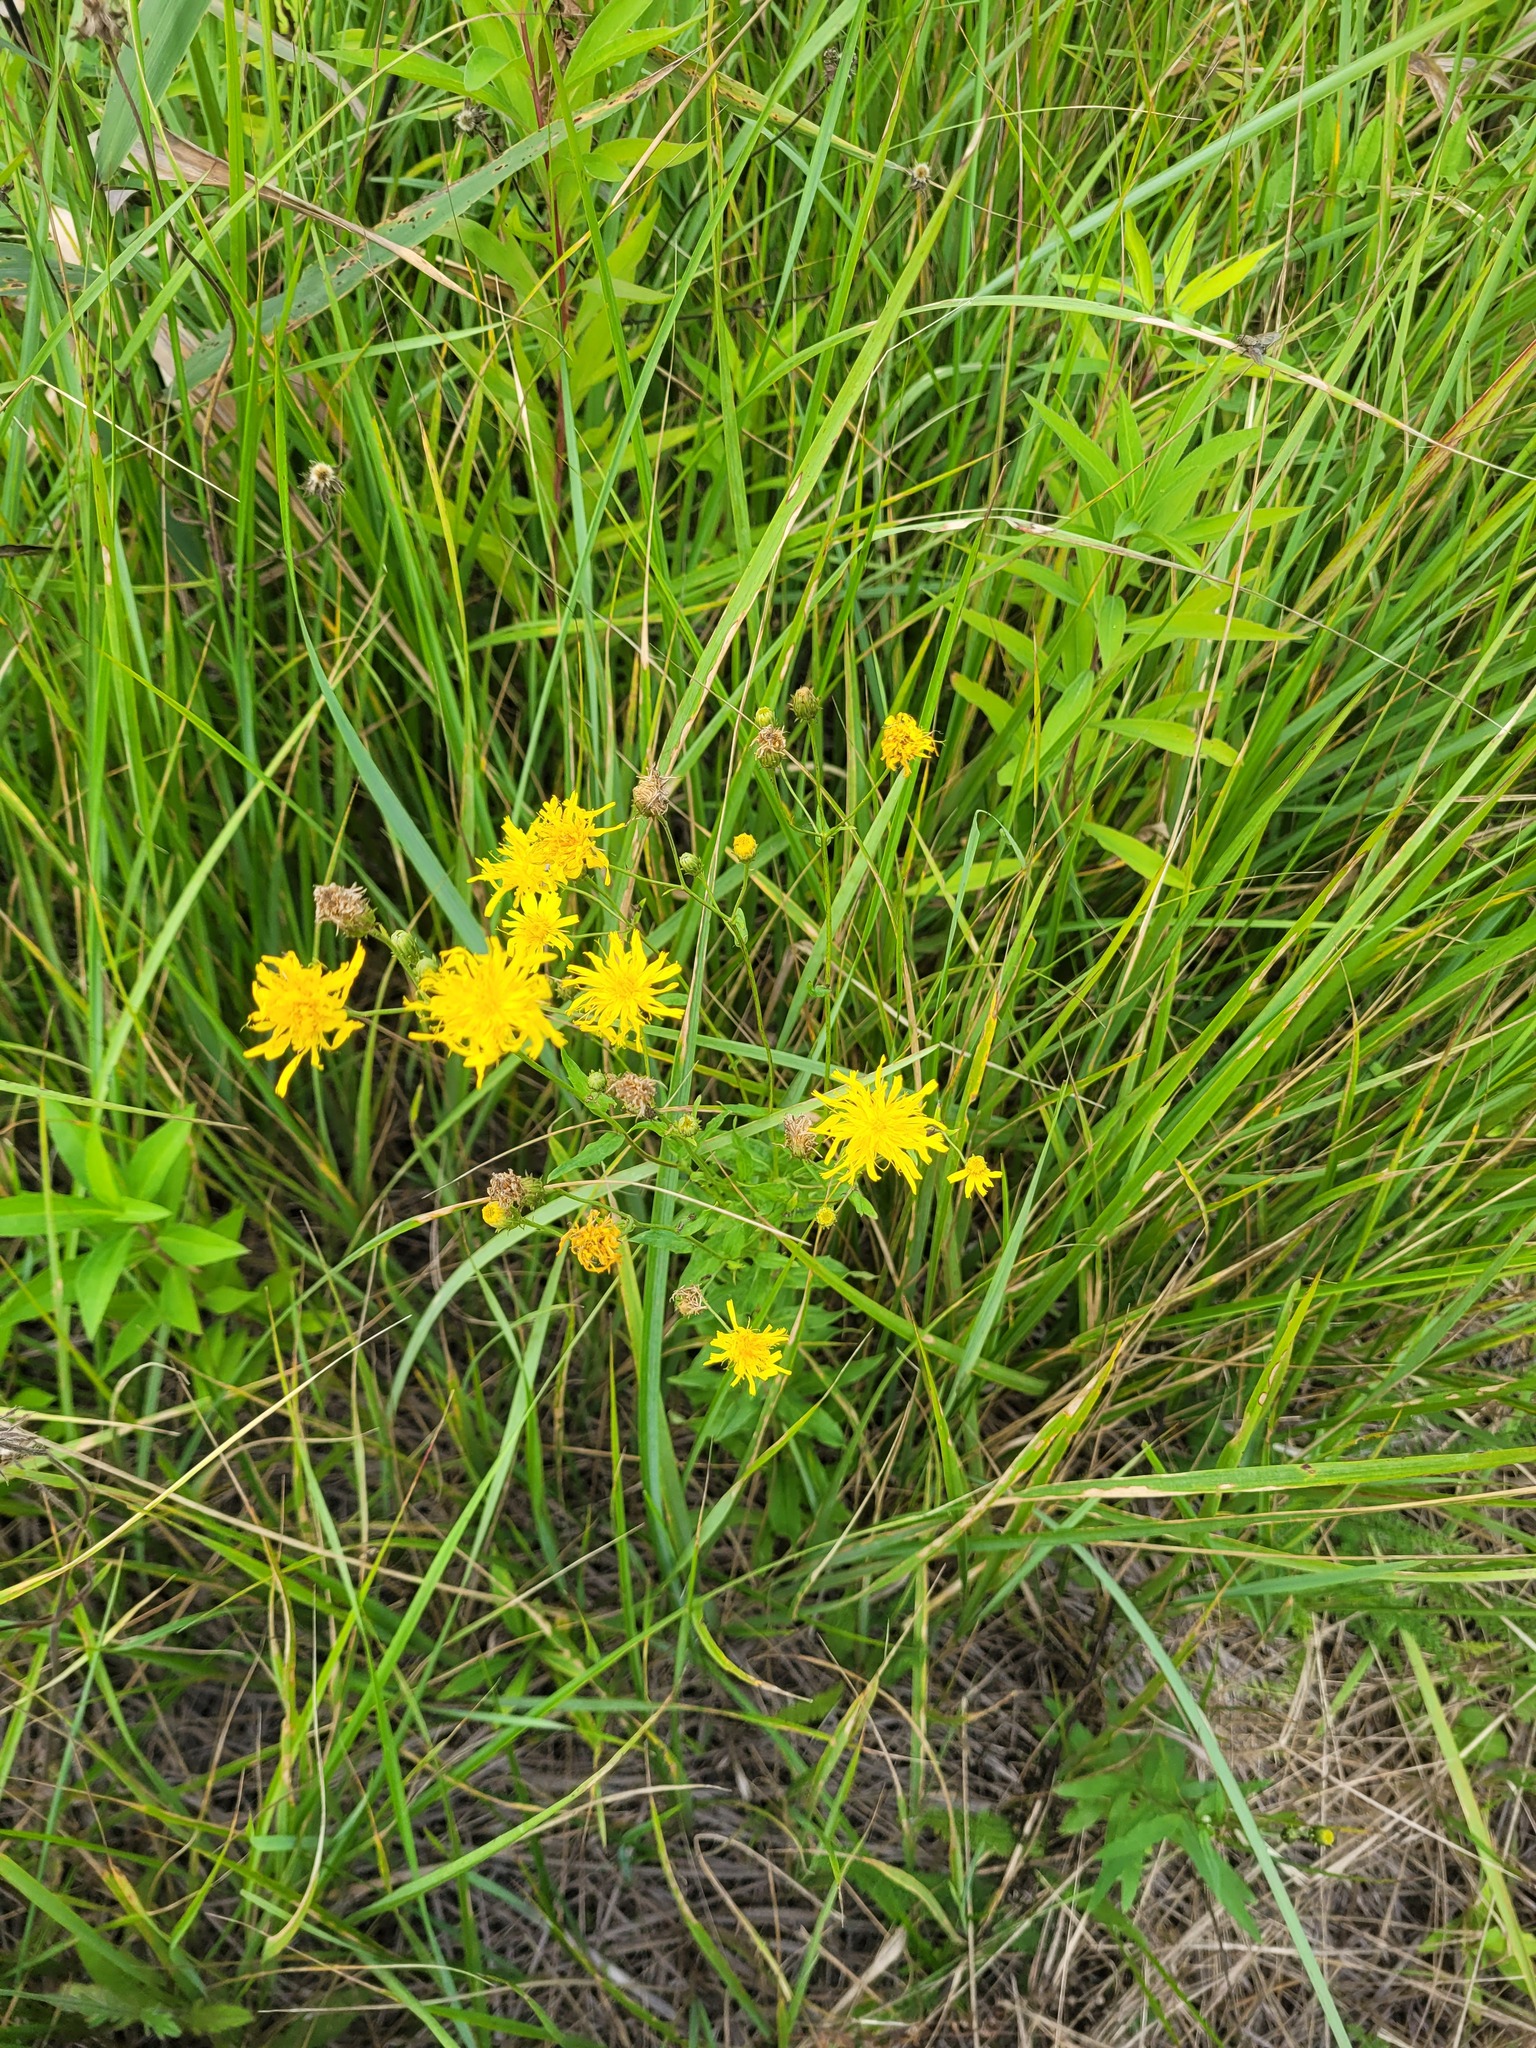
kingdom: Plantae
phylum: Tracheophyta
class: Magnoliopsida
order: Asterales
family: Asteraceae
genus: Hieracium
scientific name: Hieracium umbellatum
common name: Northern hawkweed
